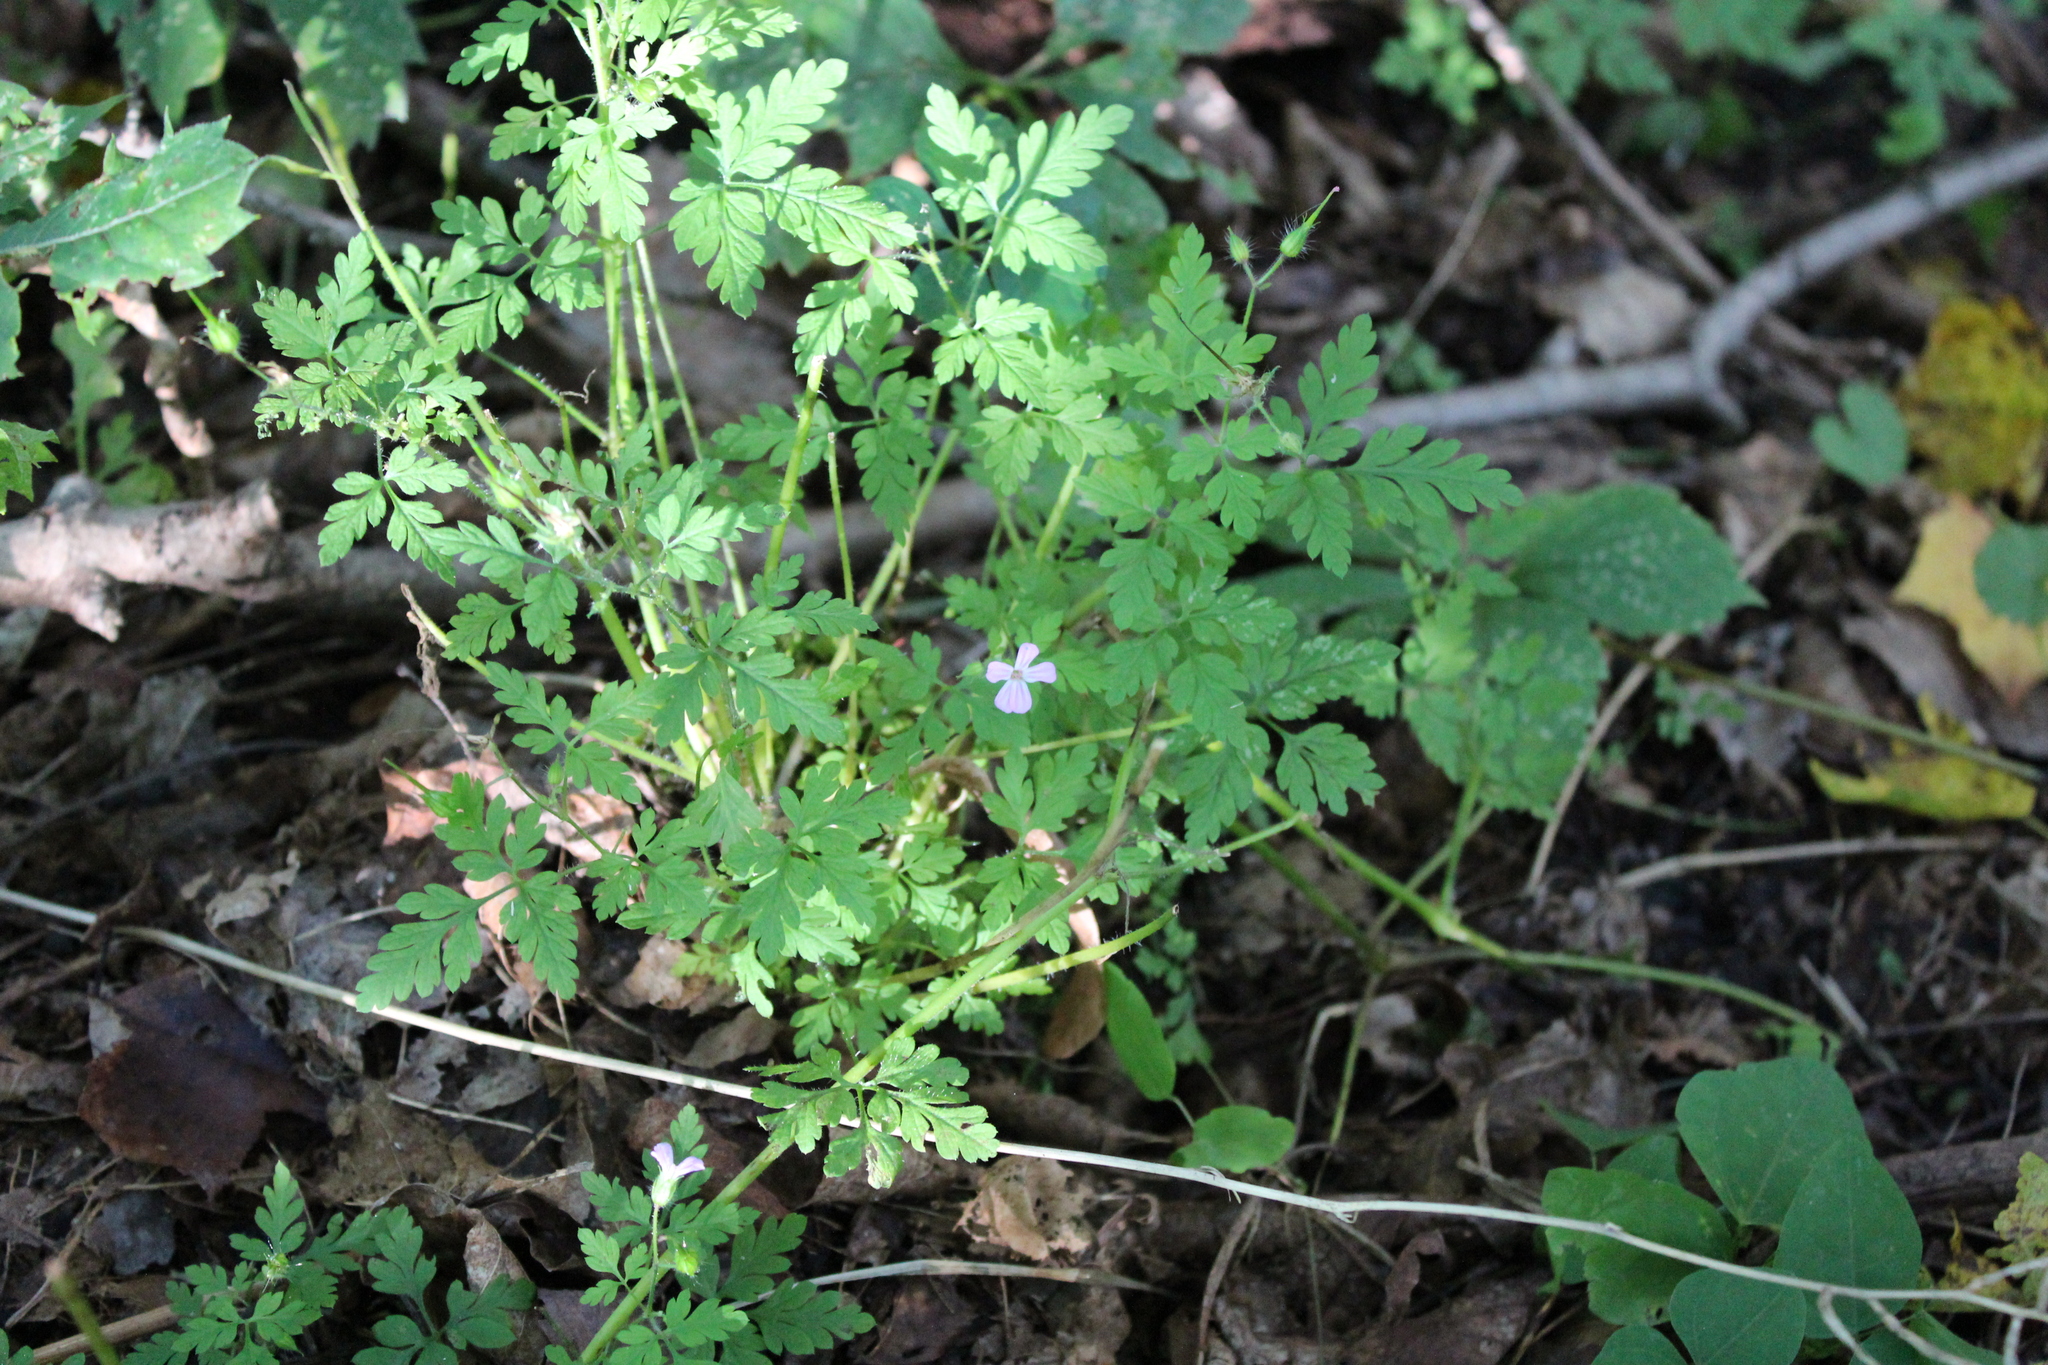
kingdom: Plantae
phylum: Tracheophyta
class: Magnoliopsida
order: Geraniales
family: Geraniaceae
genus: Geranium
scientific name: Geranium robertianum
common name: Herb-robert
